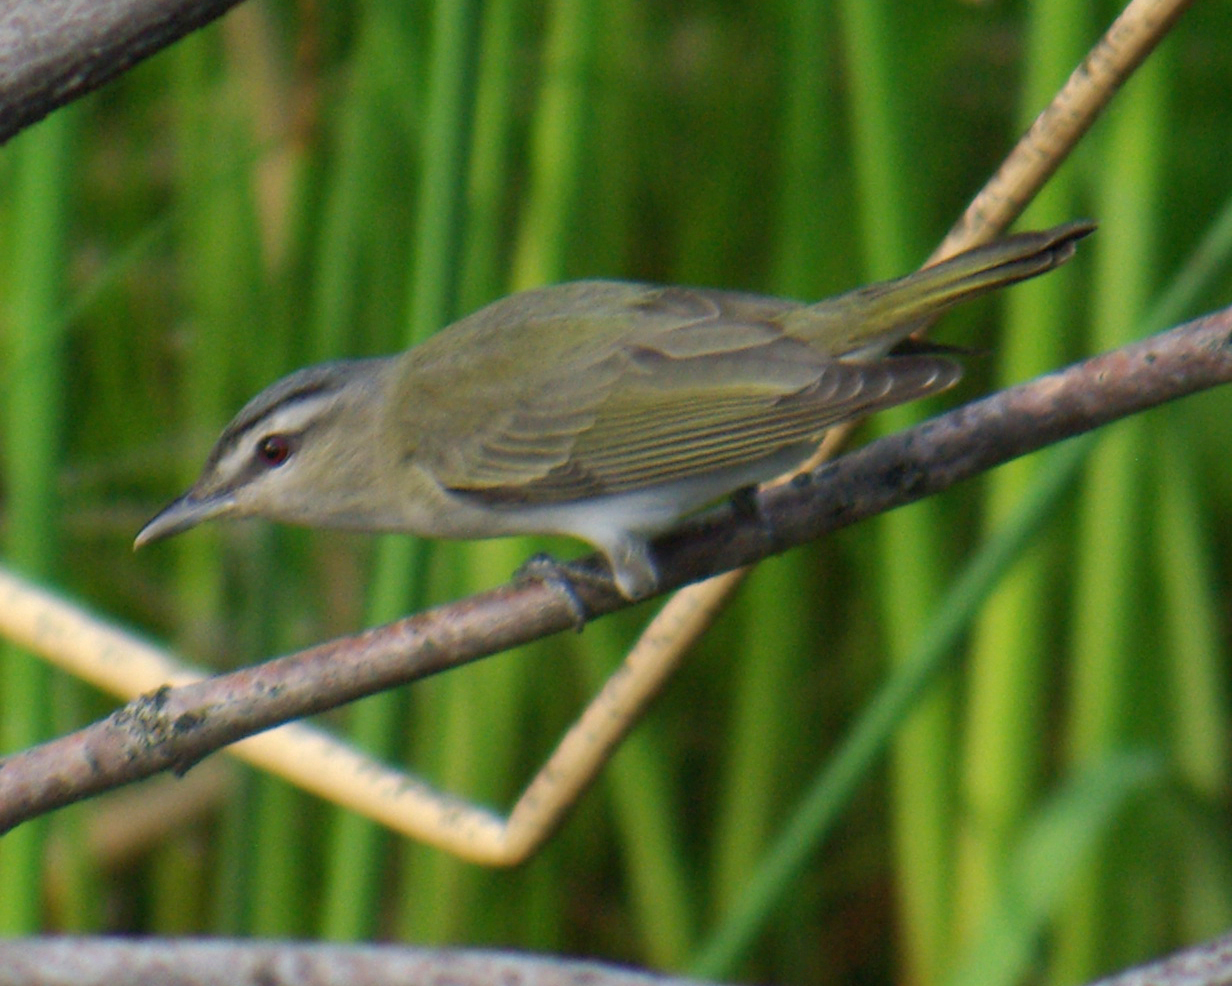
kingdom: Animalia
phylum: Chordata
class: Aves
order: Passeriformes
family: Vireonidae
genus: Vireo
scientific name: Vireo olivaceus
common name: Red-eyed vireo
